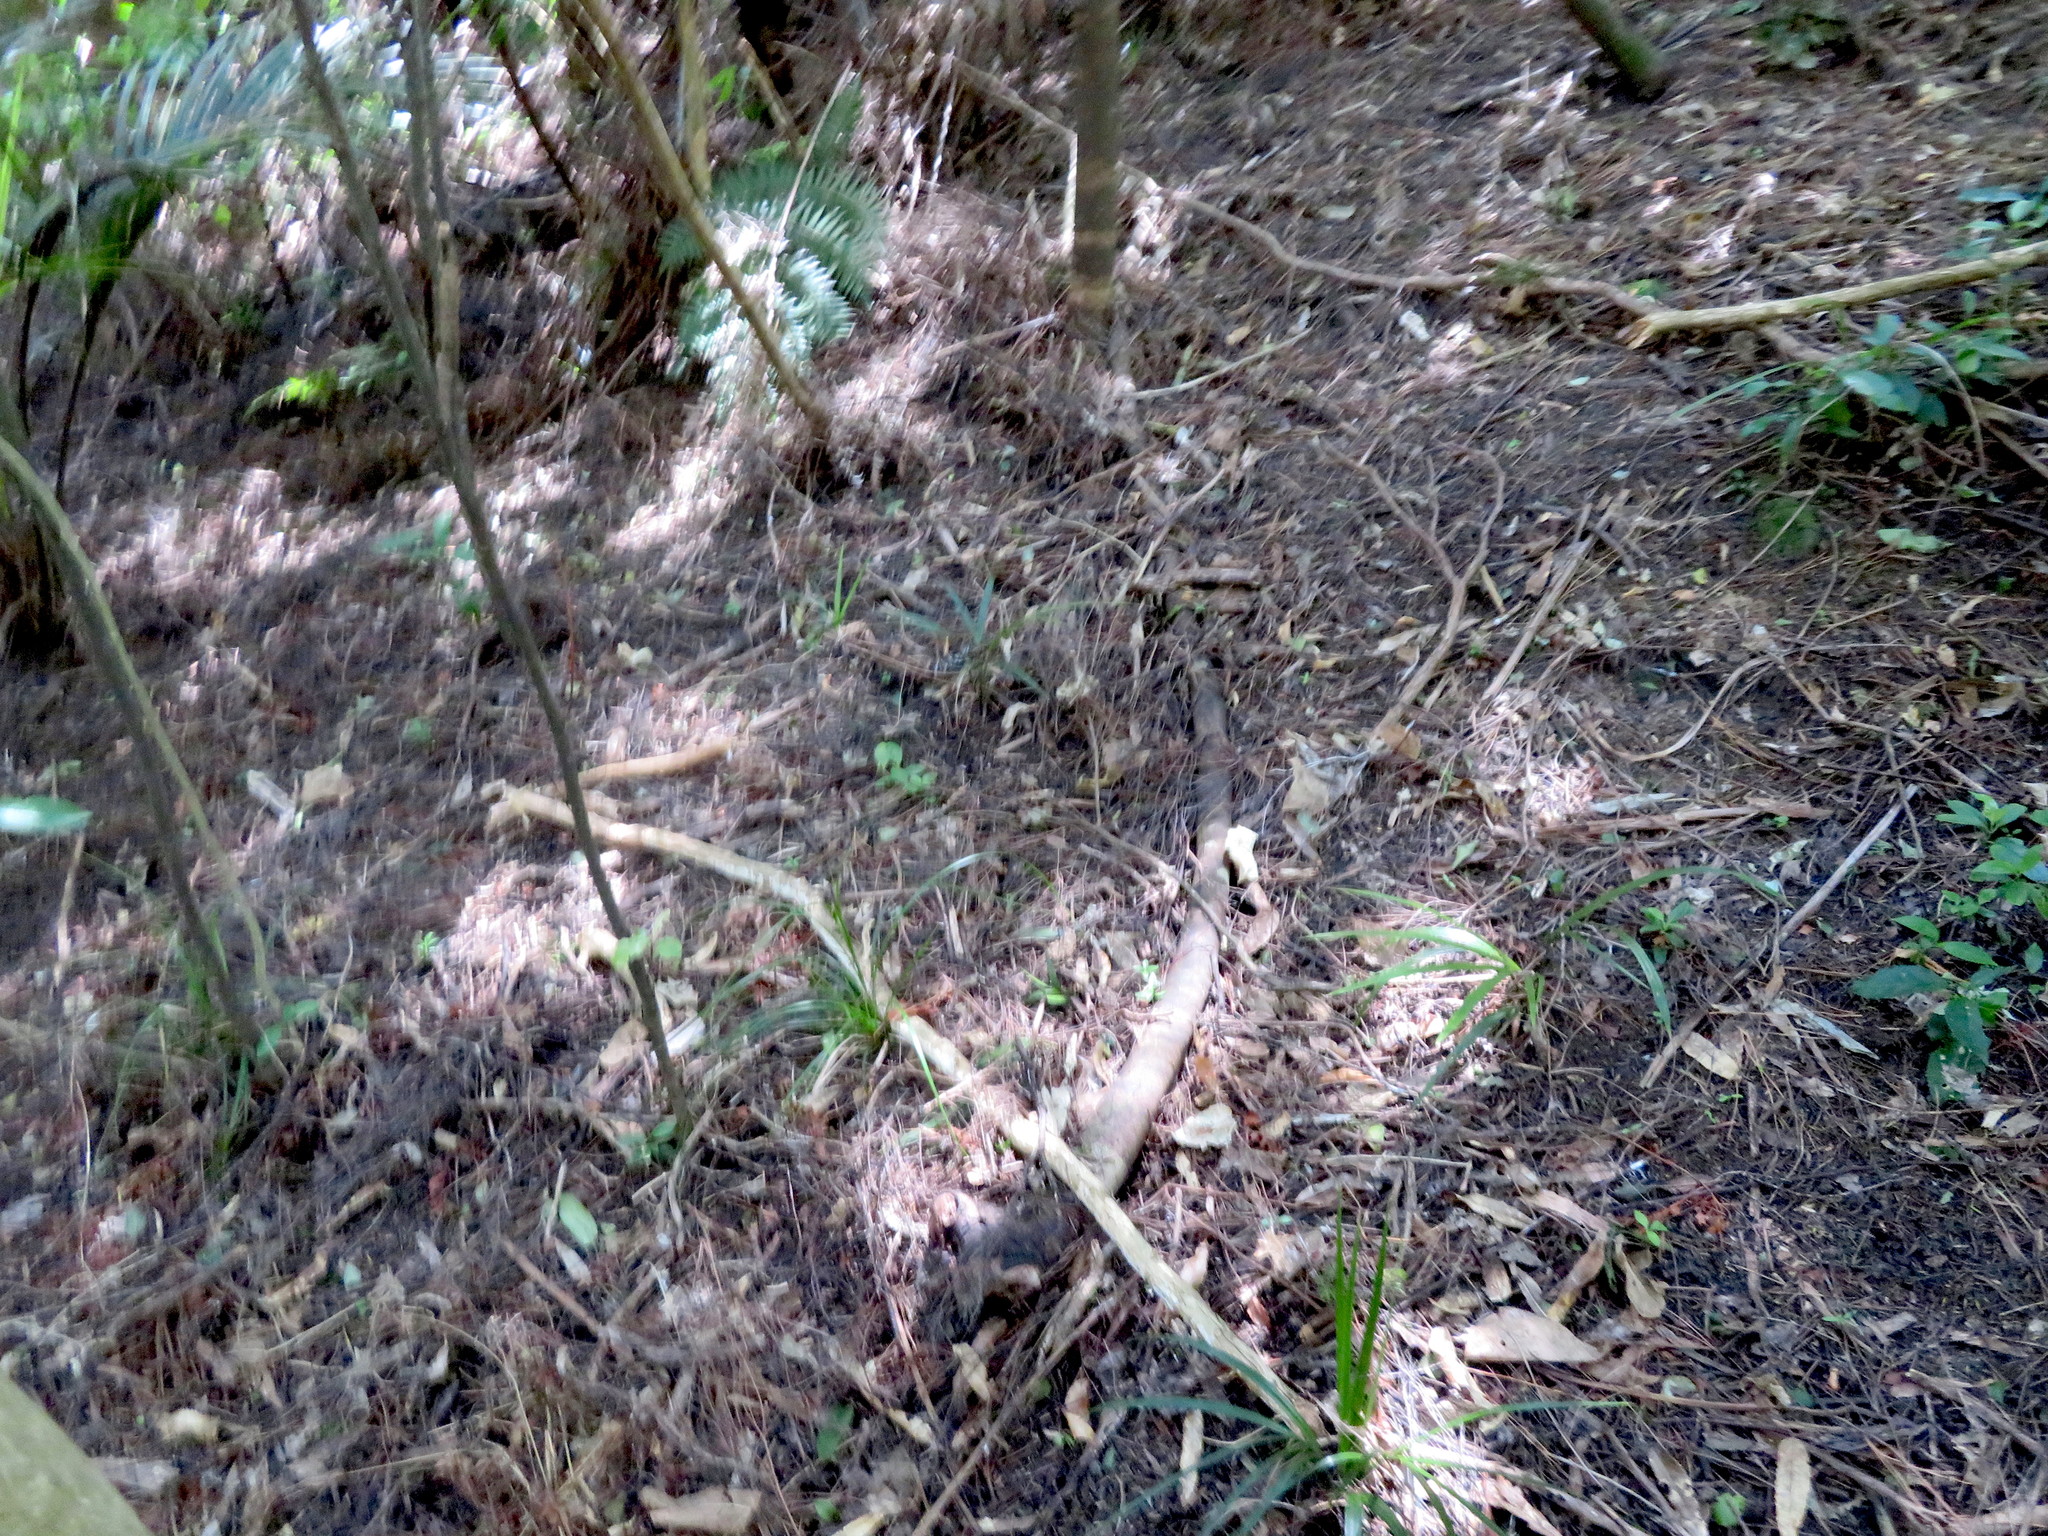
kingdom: Plantae
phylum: Tracheophyta
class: Liliopsida
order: Arecales
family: Arecaceae
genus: Rhopalostylis
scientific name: Rhopalostylis sapida
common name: Feather-duster palm
